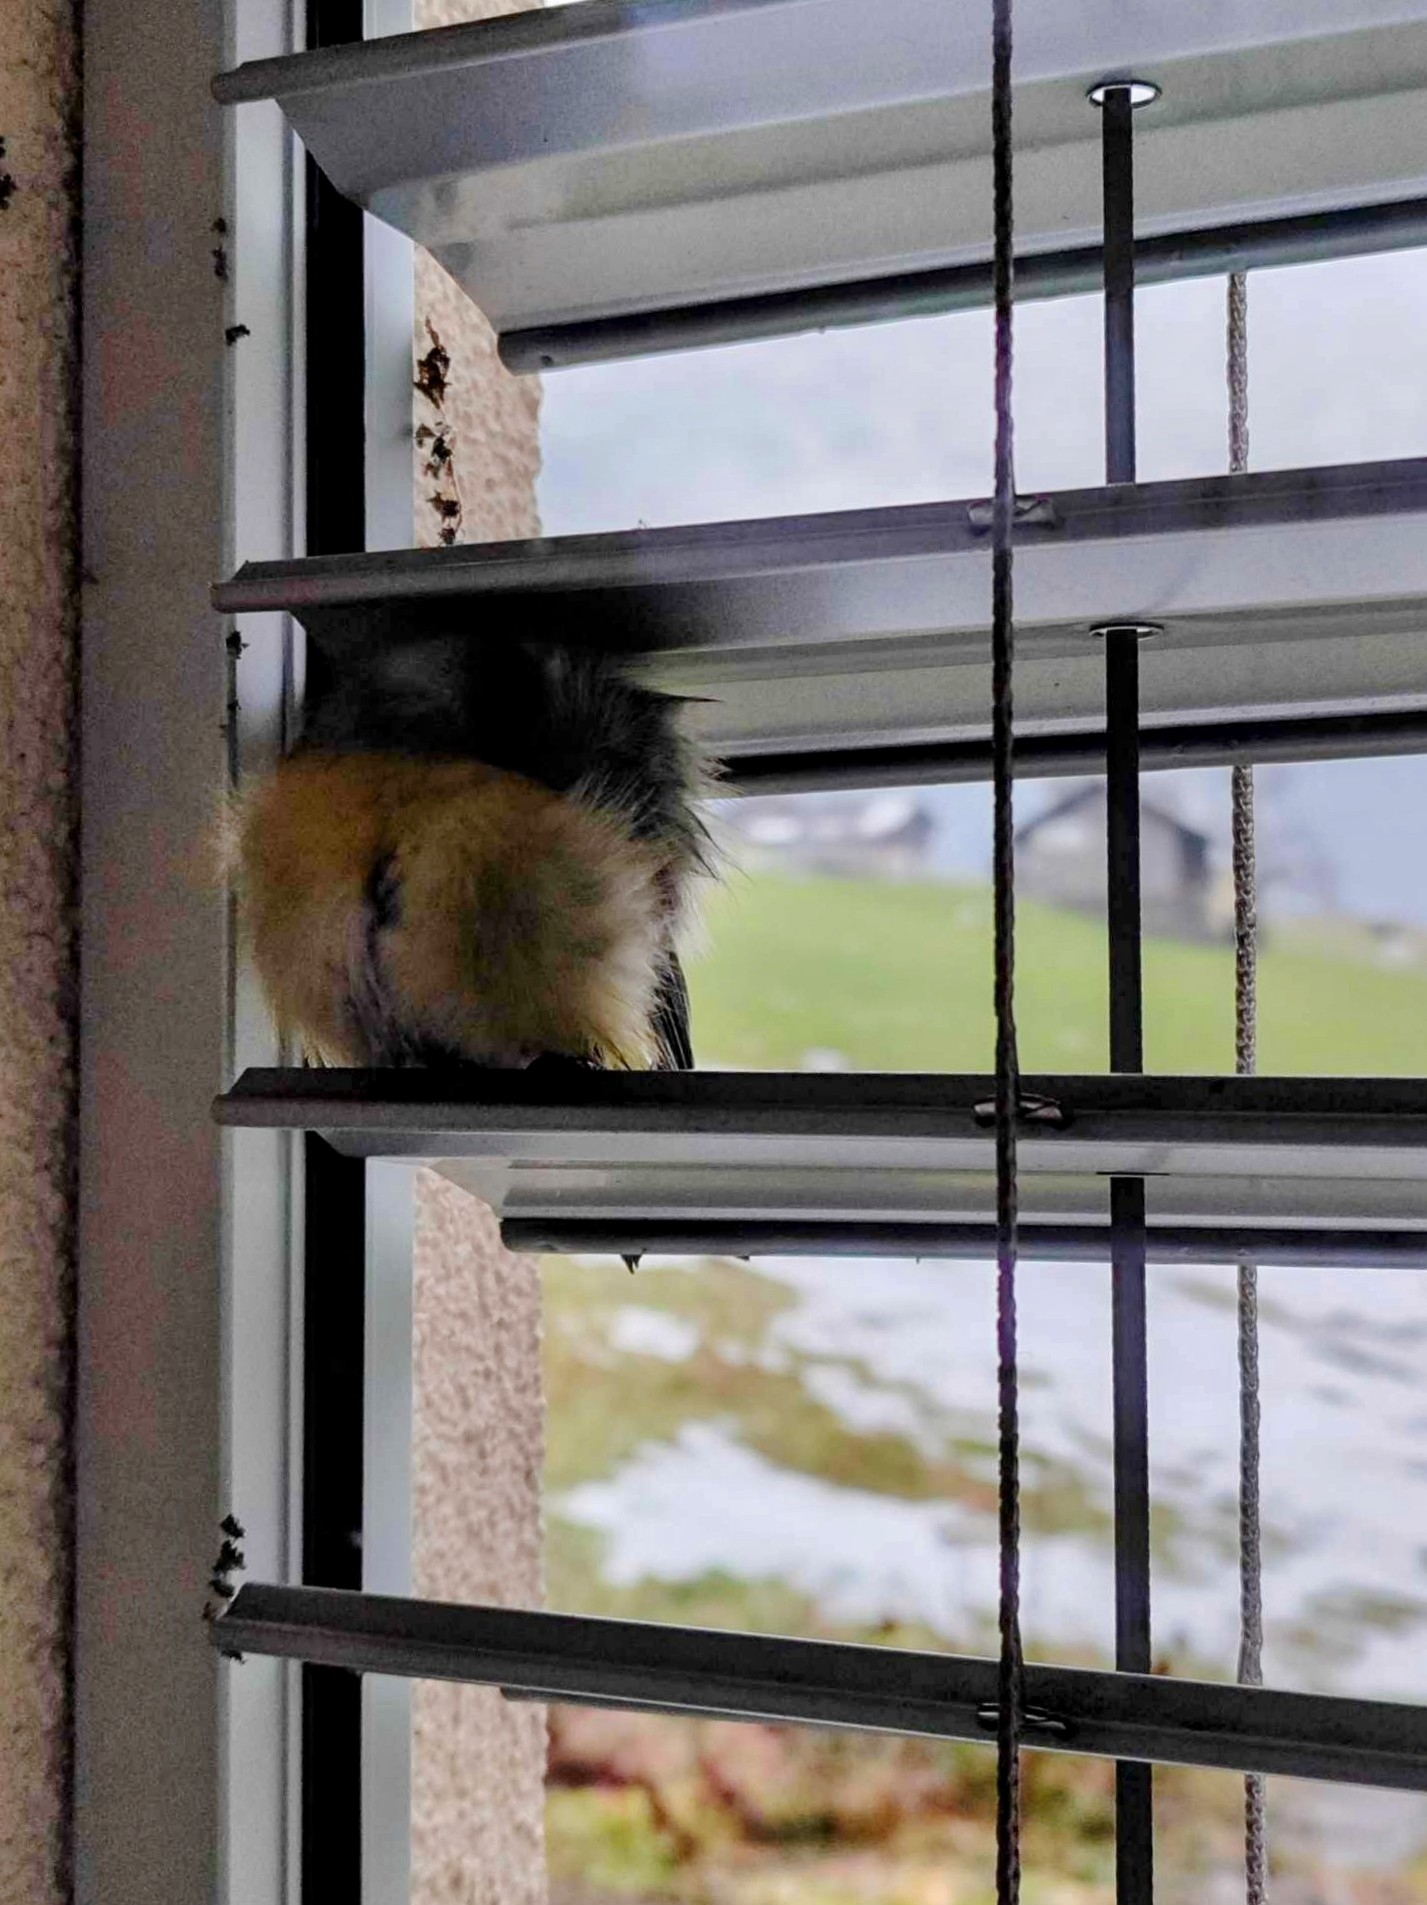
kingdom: Animalia
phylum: Chordata
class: Aves
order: Passeriformes
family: Paridae
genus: Cyanistes
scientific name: Cyanistes caeruleus
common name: Eurasian blue tit
